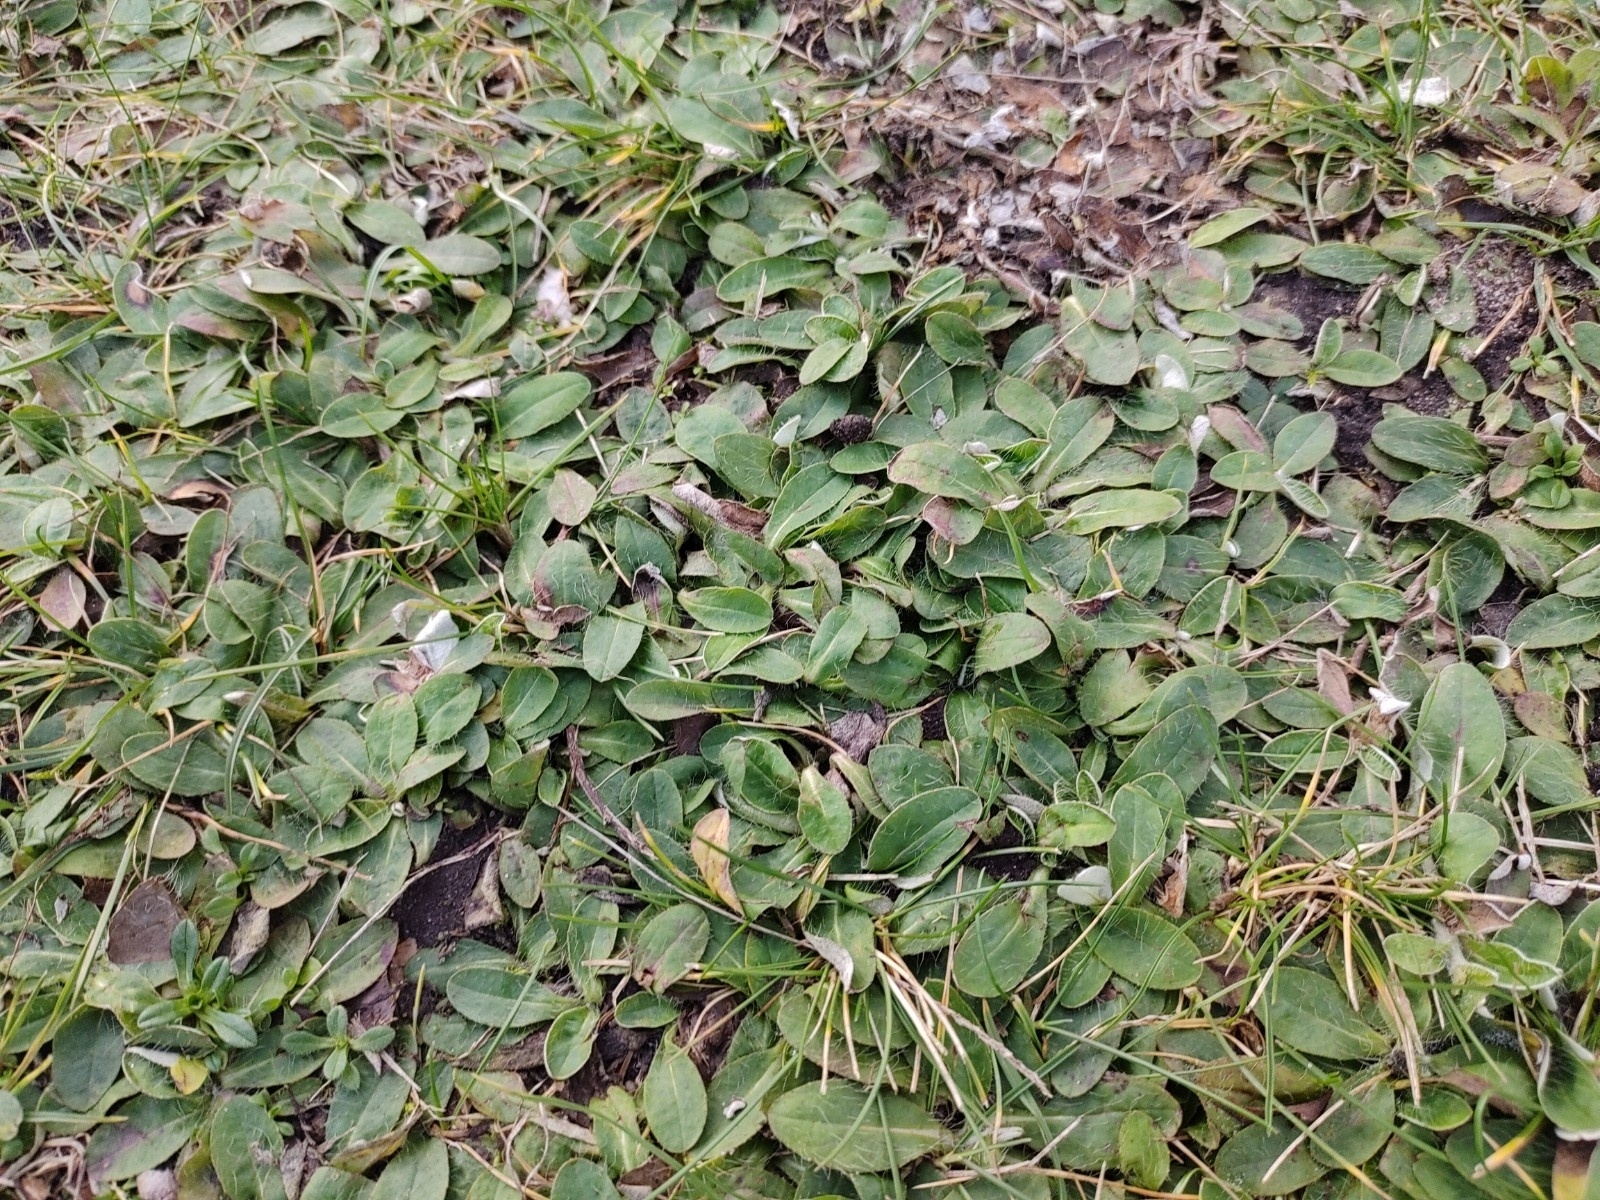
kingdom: Plantae
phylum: Tracheophyta
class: Magnoliopsida
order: Asterales
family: Asteraceae
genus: Pilosella
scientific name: Pilosella officinarum
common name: Mouse-ear hawkweed
